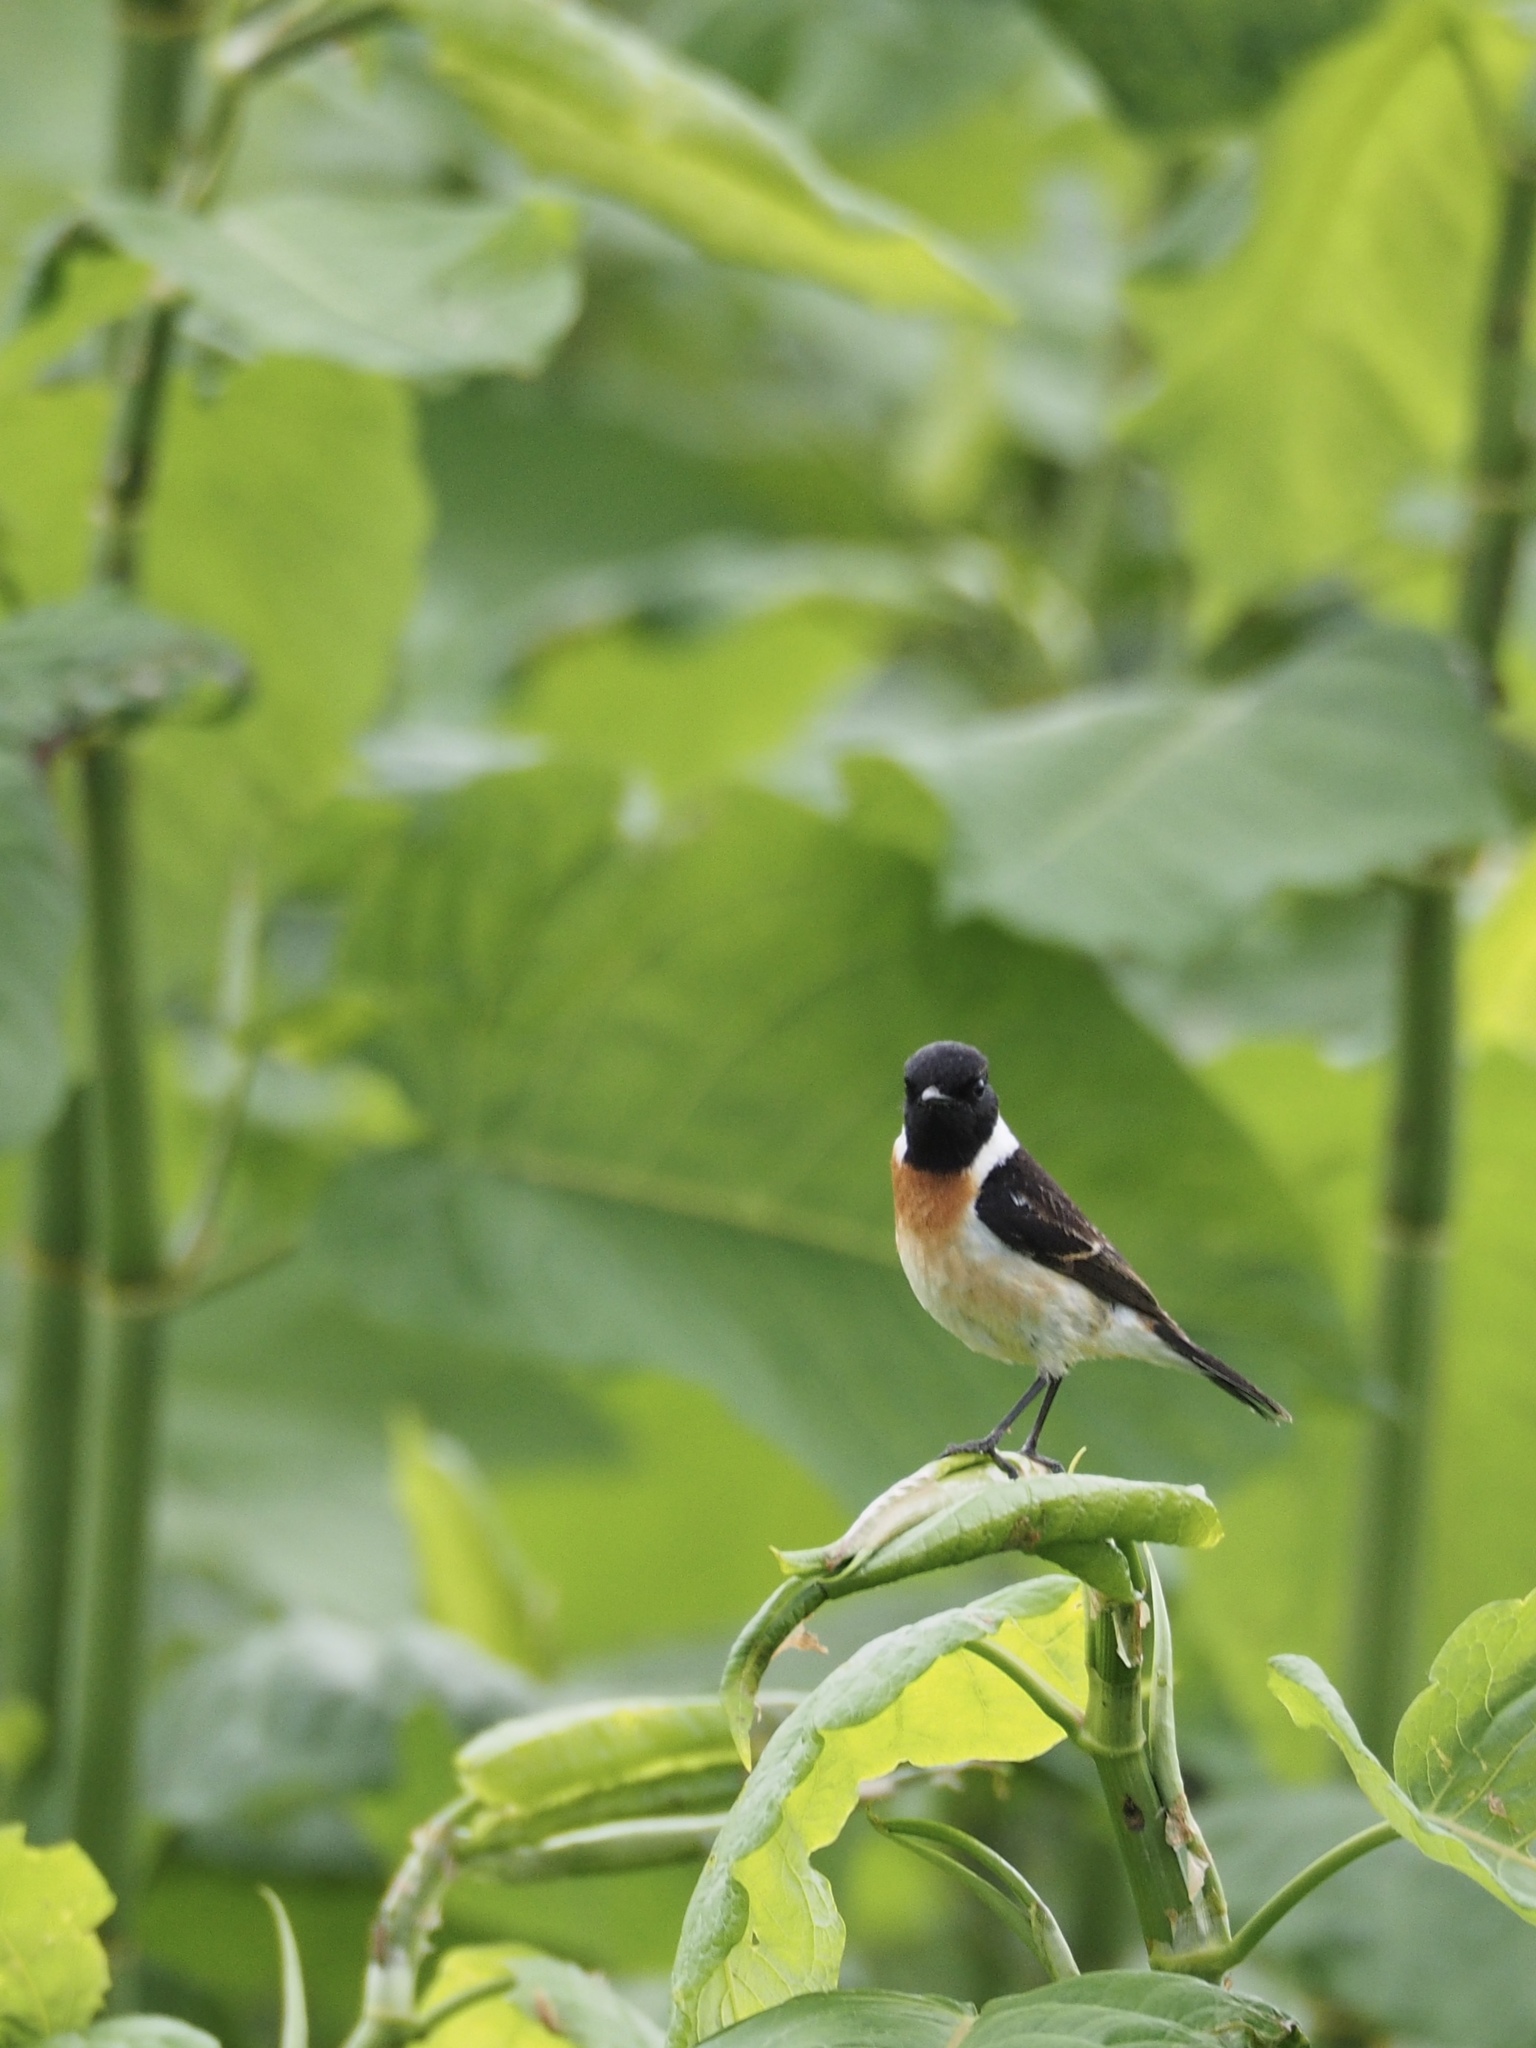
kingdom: Animalia
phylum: Chordata
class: Aves
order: Passeriformes
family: Muscicapidae
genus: Saxicola
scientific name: Saxicola stejnegeri
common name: Stejneger's stonechat
